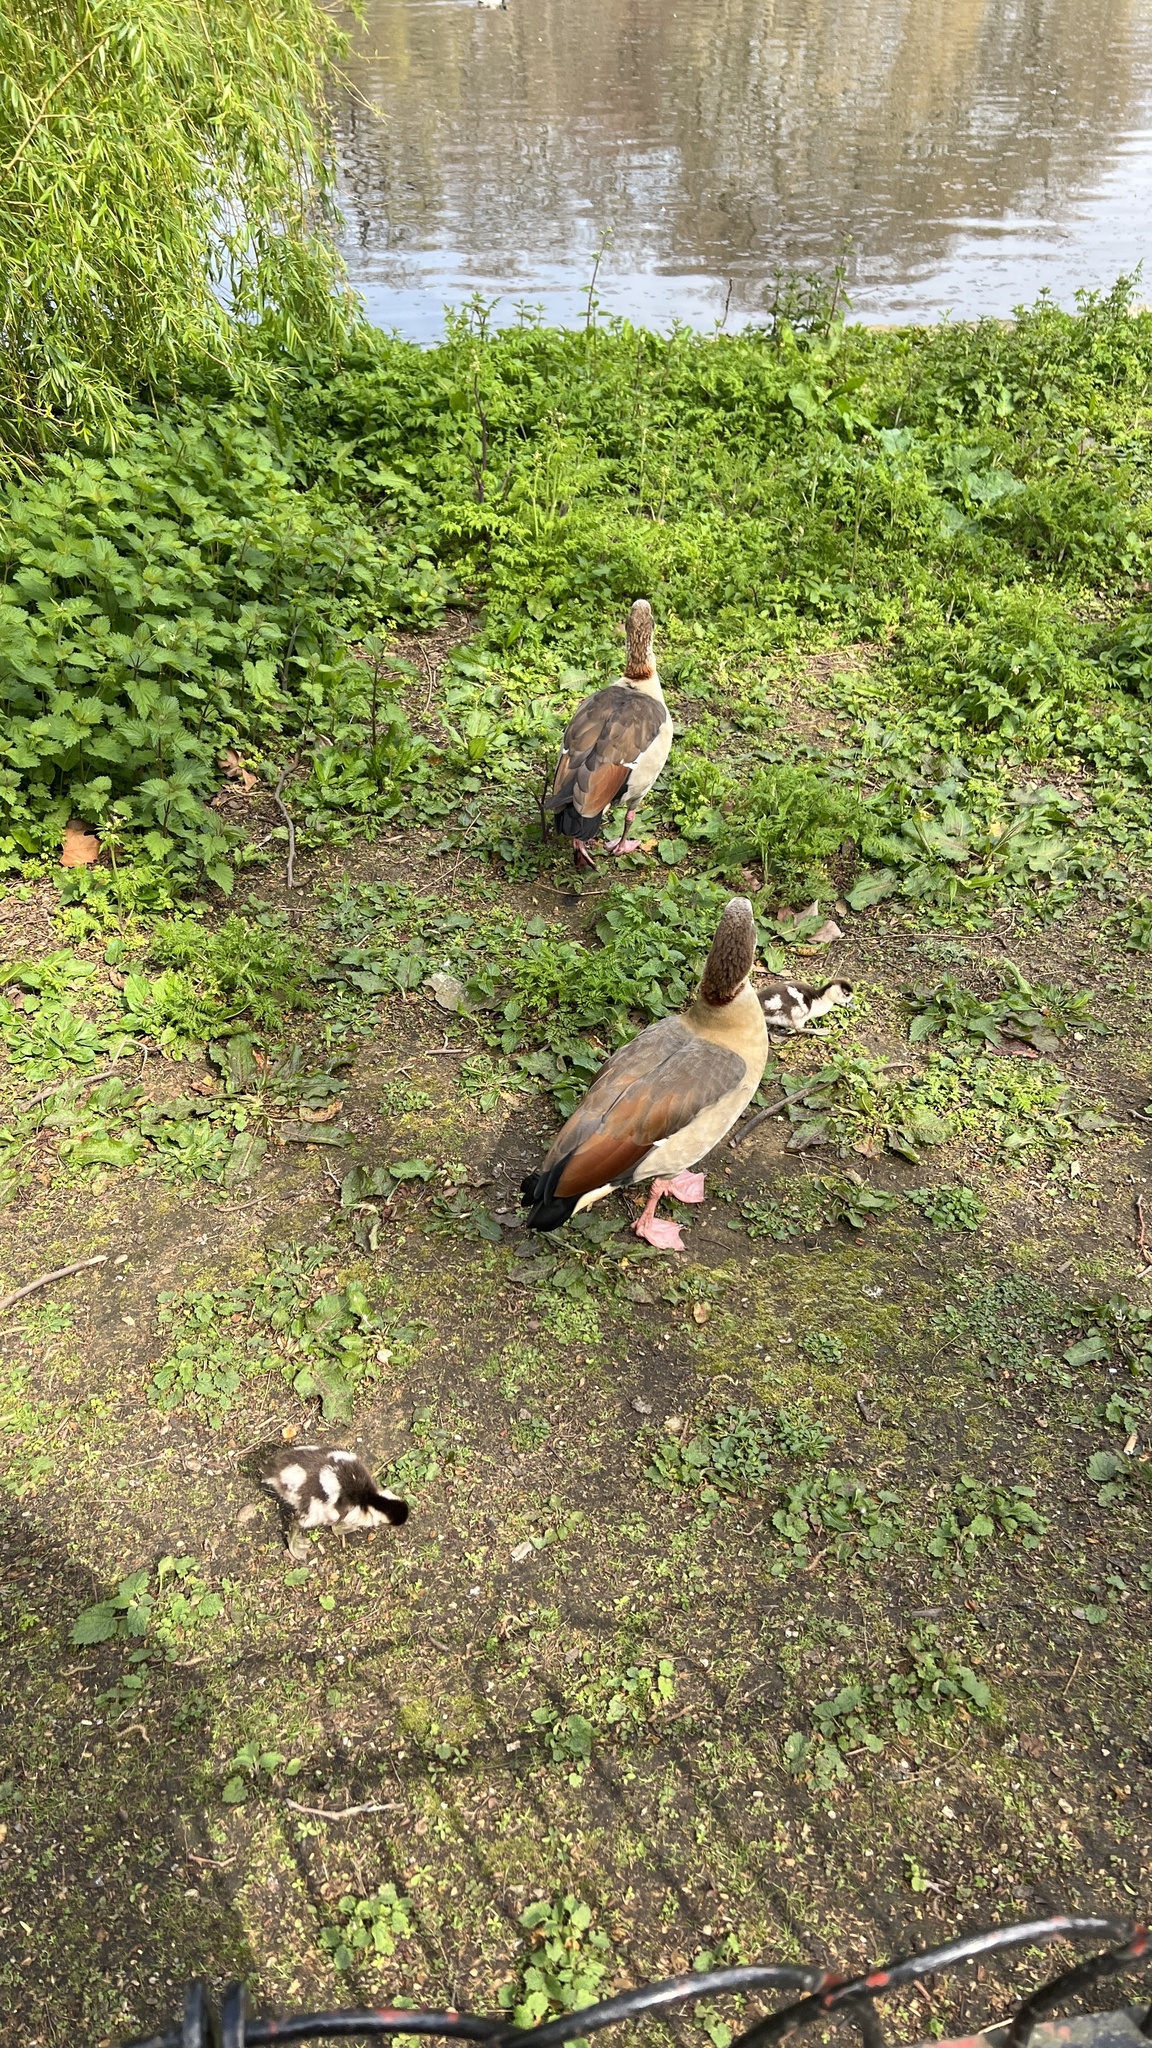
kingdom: Animalia
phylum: Chordata
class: Aves
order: Anseriformes
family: Anatidae
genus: Alopochen
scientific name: Alopochen aegyptiaca
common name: Egyptian goose
